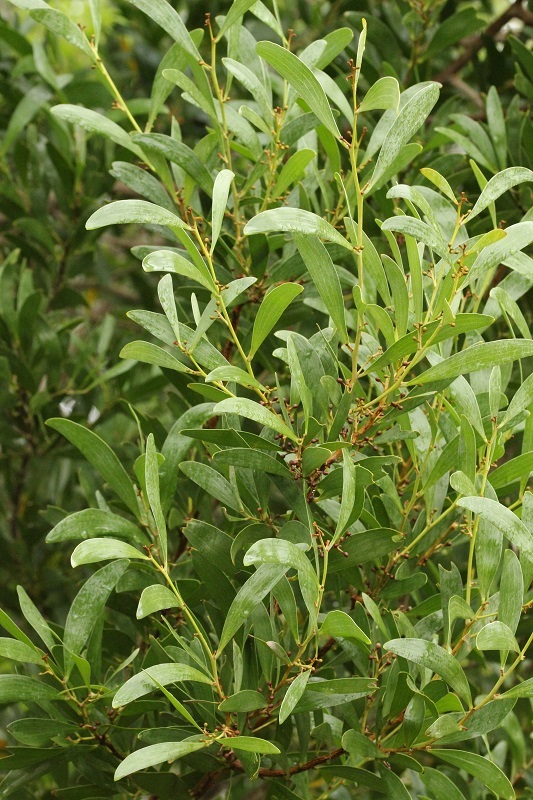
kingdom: Plantae
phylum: Tracheophyta
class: Magnoliopsida
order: Fabales
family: Fabaceae
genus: Acacia
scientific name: Acacia melanoxylon
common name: Blackwood
